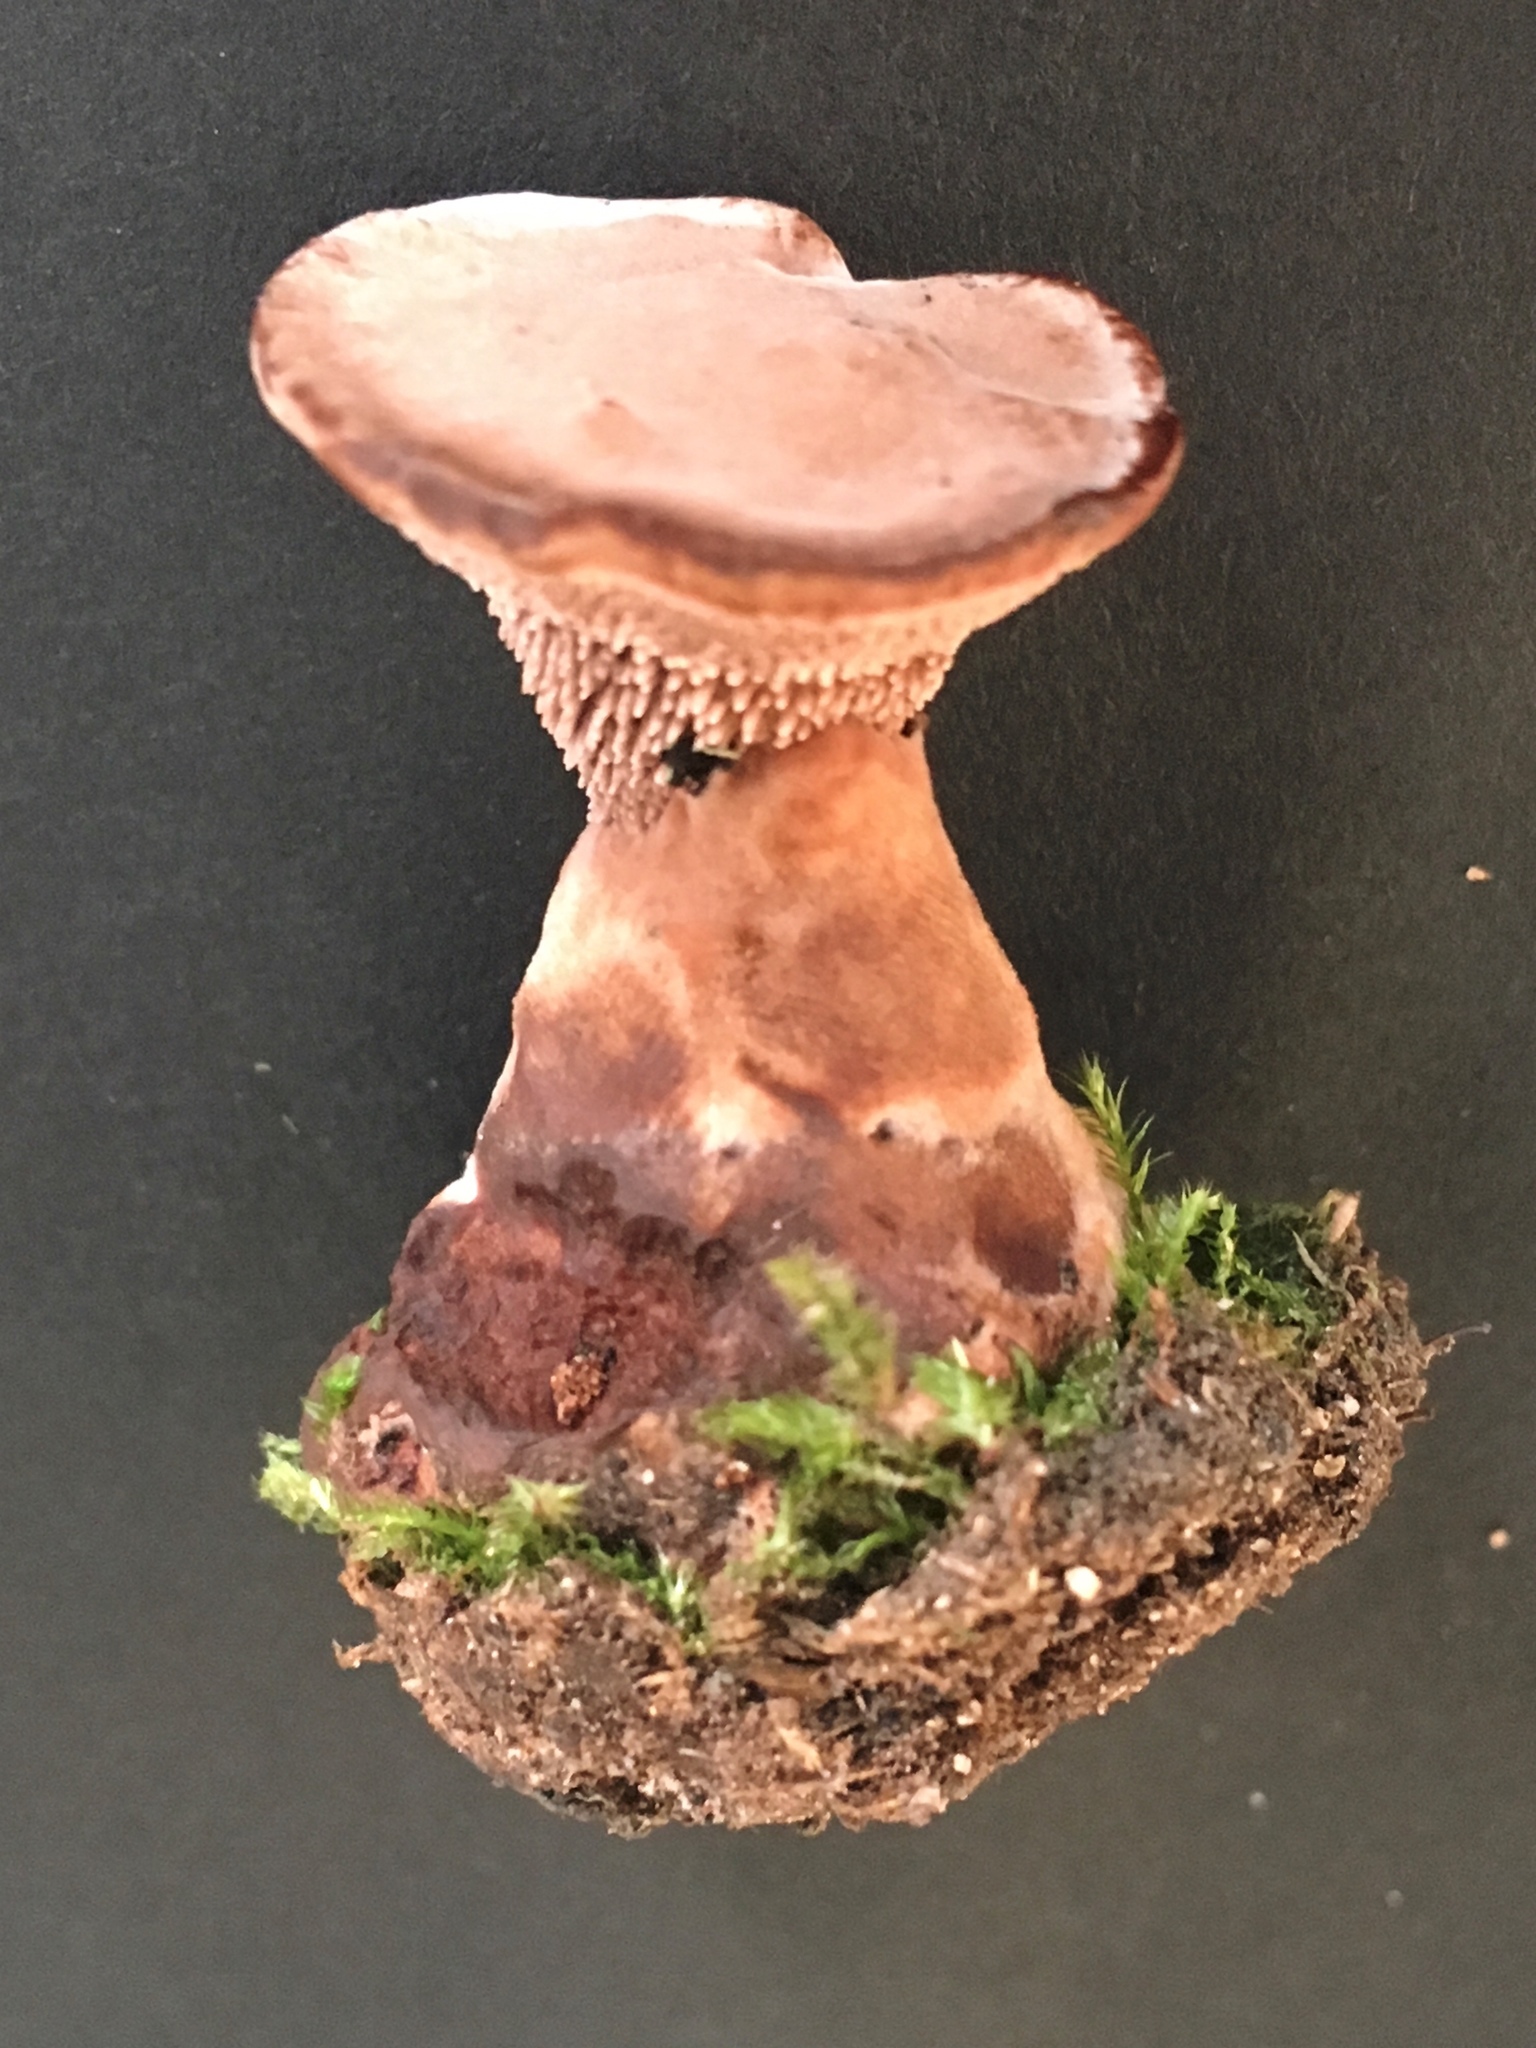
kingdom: Fungi
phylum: Basidiomycota
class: Agaricomycetes
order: Thelephorales
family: Bankeraceae
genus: Hydnellum
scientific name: Hydnellum spongiosipes
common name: Velvet tooth
